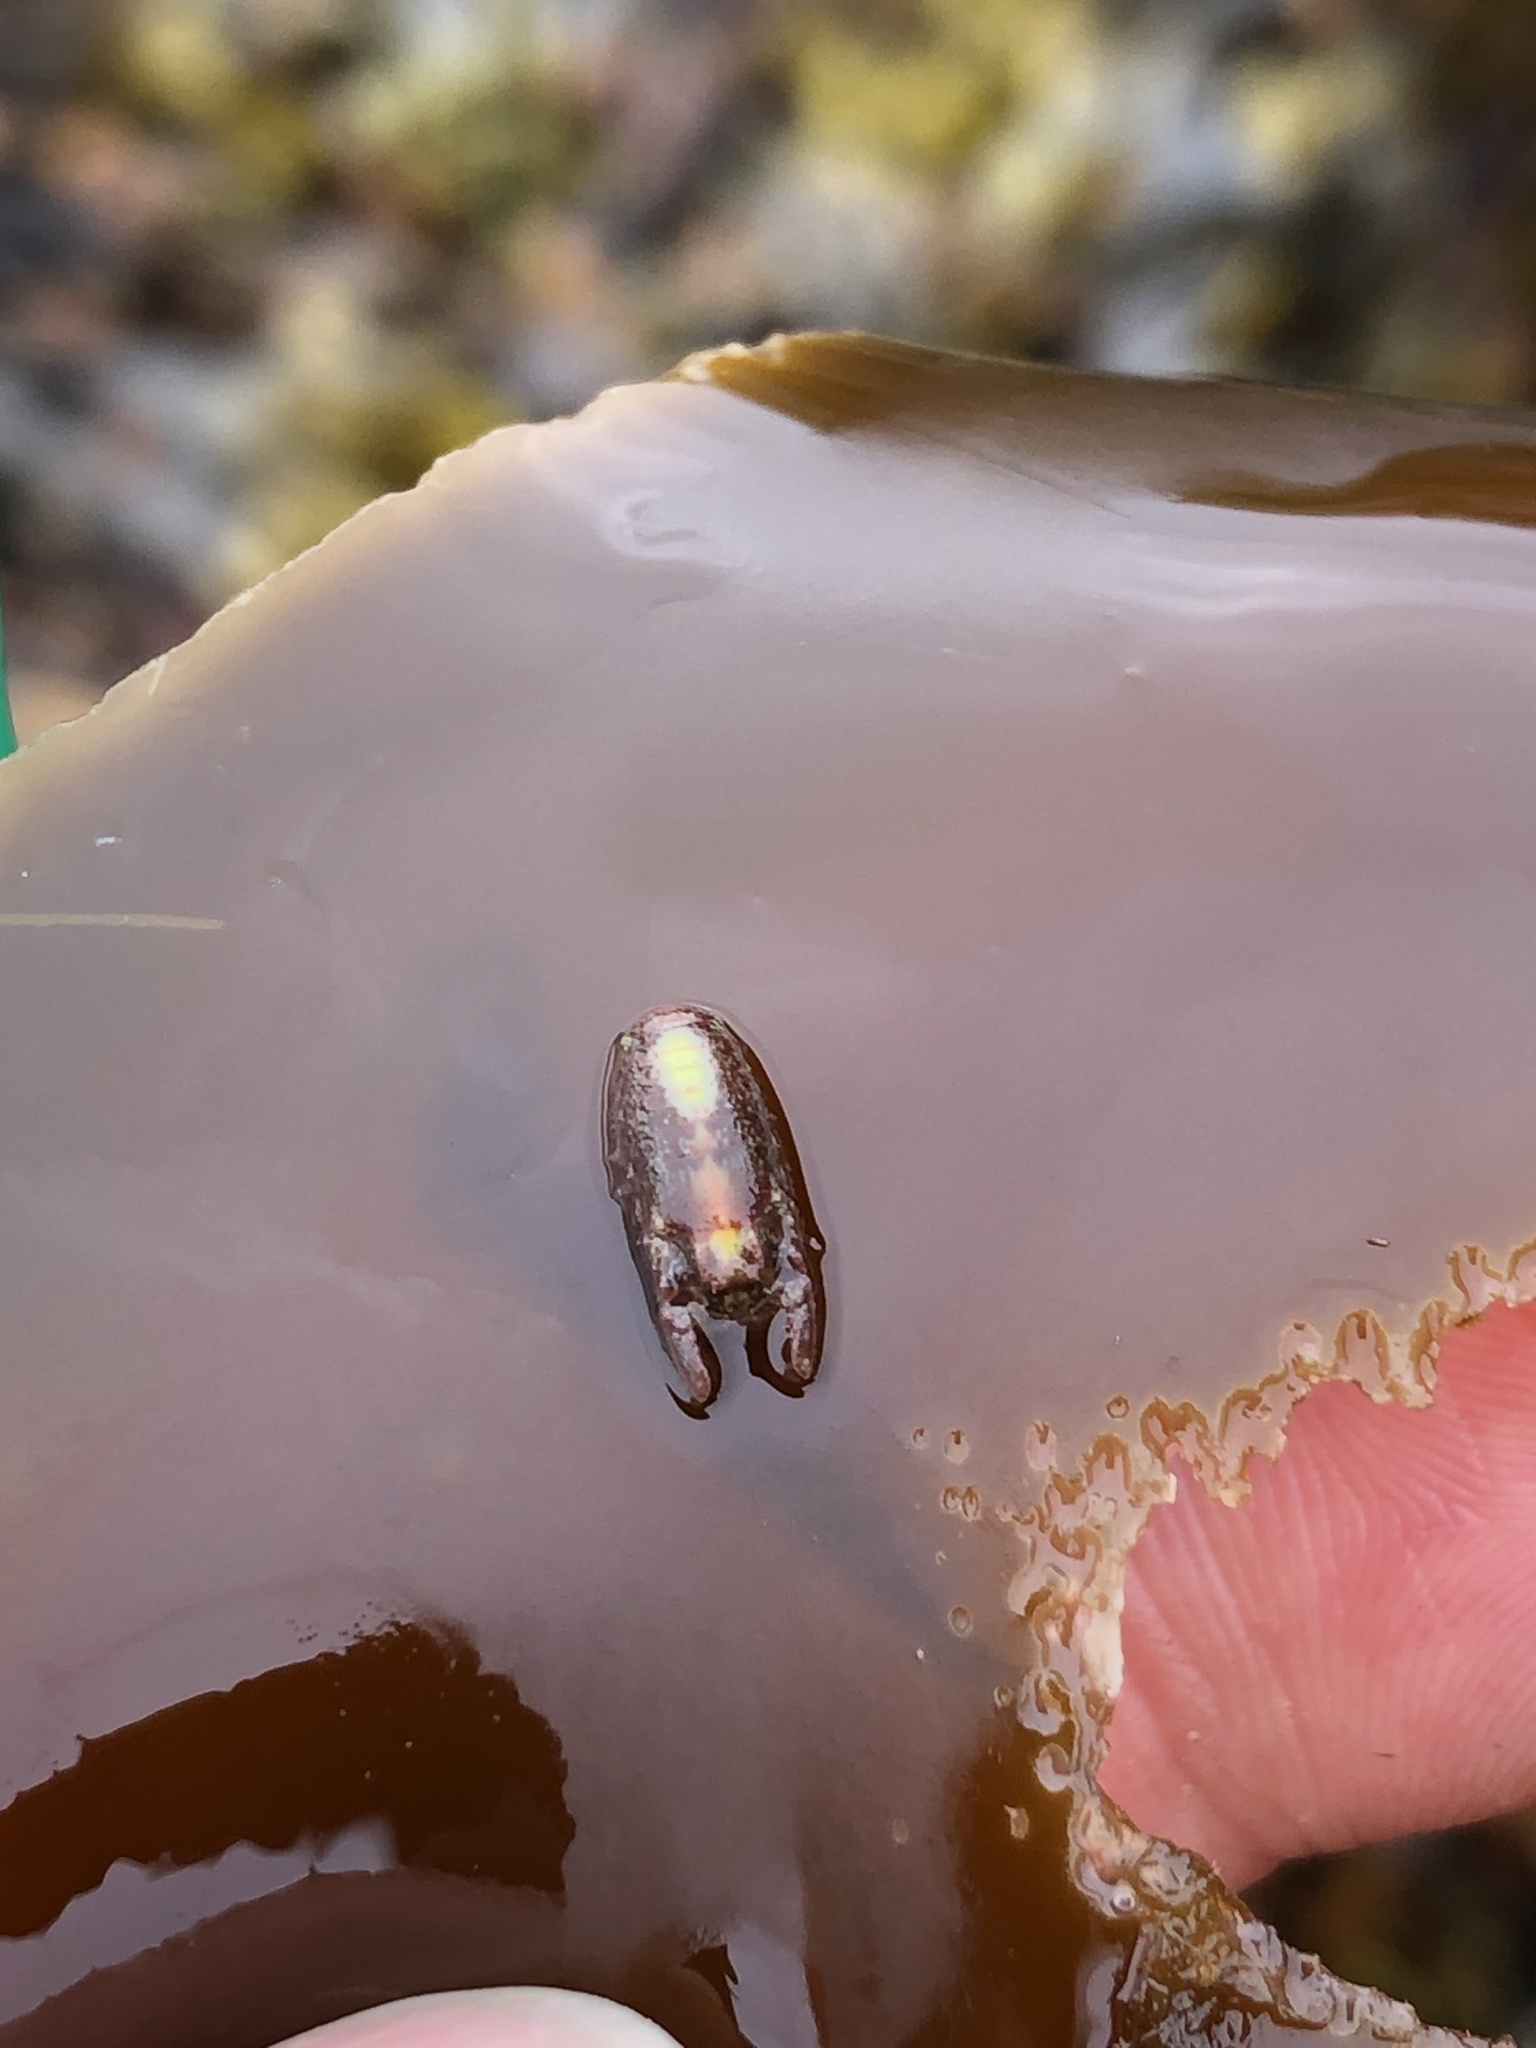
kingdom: Animalia
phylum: Arthropoda
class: Malacostraca
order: Isopoda
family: Sphaeromatidae
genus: Dynamene
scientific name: Dynamene bidentata
